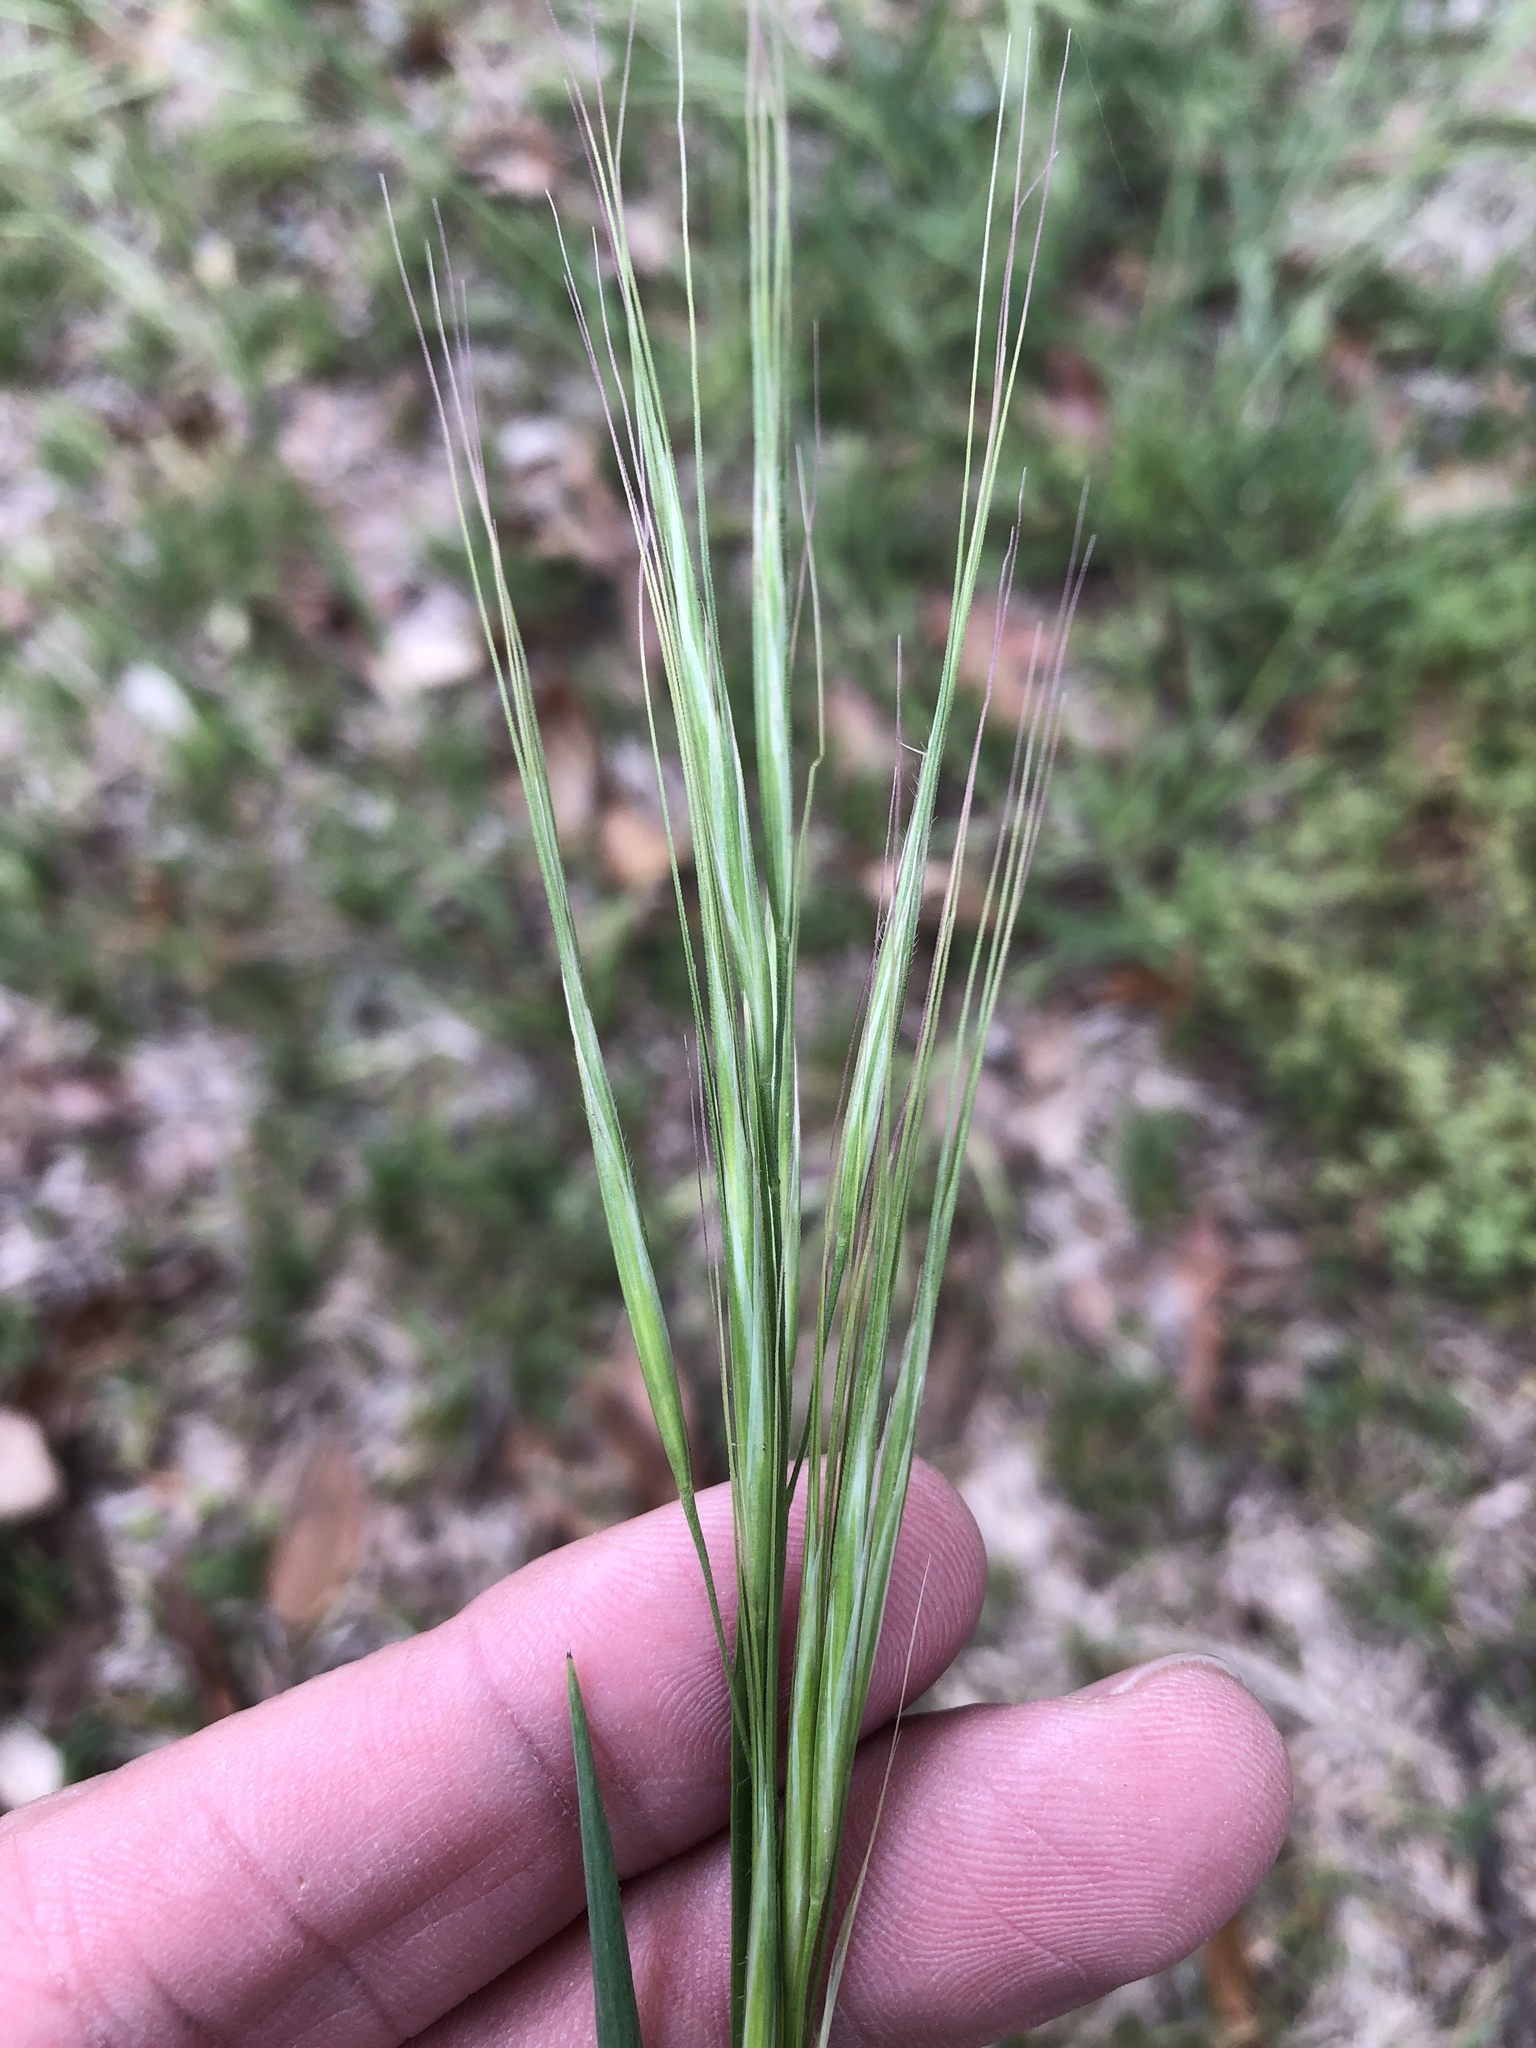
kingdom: Plantae
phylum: Tracheophyta
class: Liliopsida
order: Poales
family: Poaceae
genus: Bromus
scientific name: Bromus diandrus
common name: Ripgut brome
